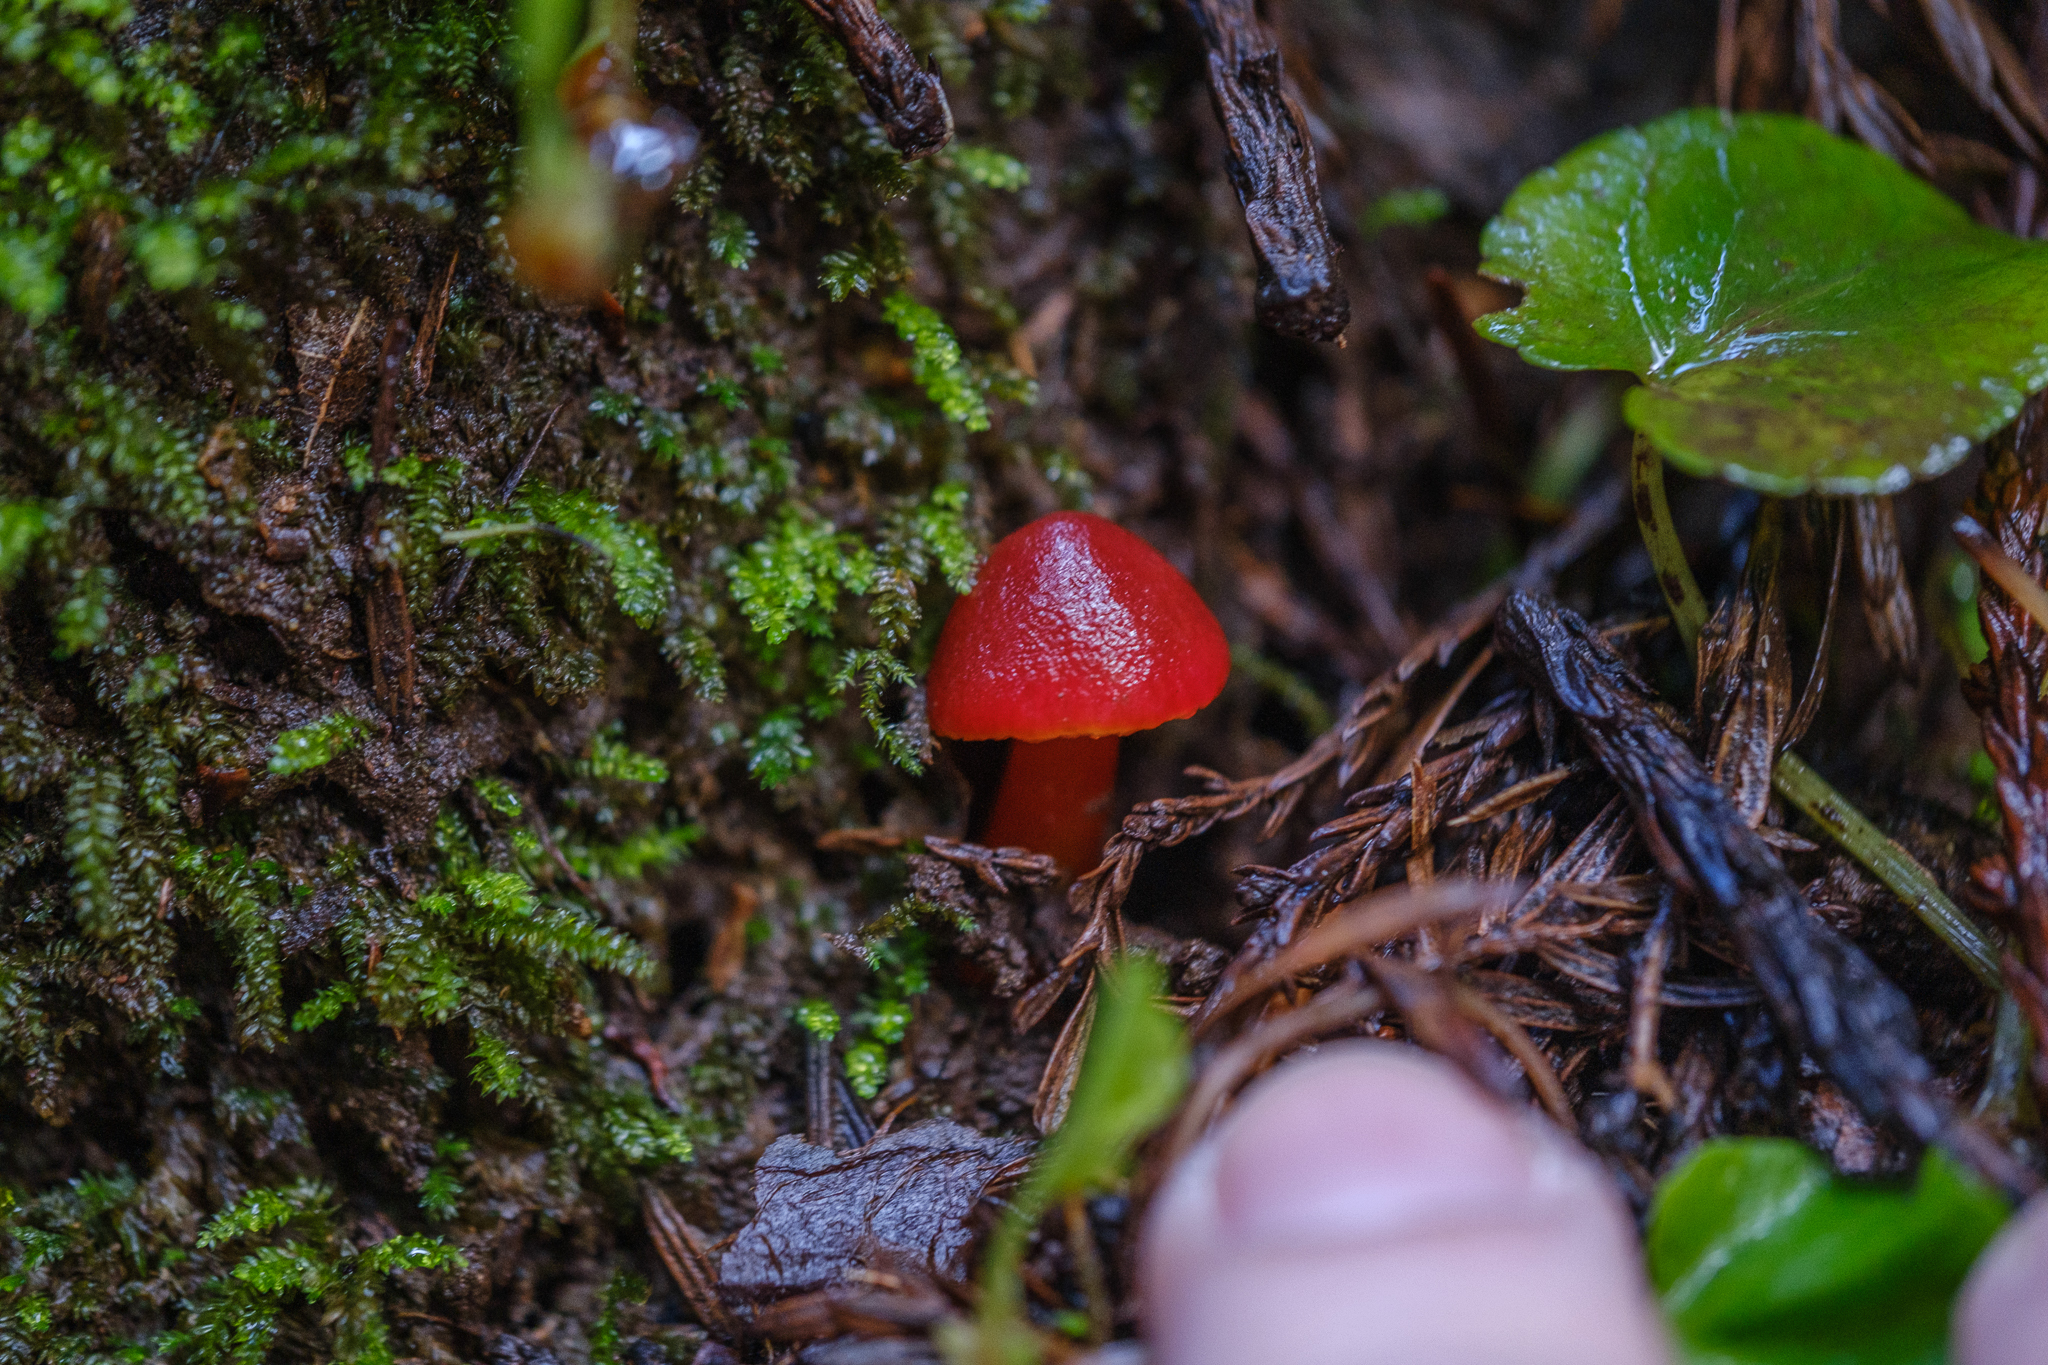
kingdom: Fungi
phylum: Basidiomycota
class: Agaricomycetes
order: Agaricales
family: Hygrophoraceae
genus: Hygrocybe
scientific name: Hygrocybe coccinea
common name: Scarlet hood
